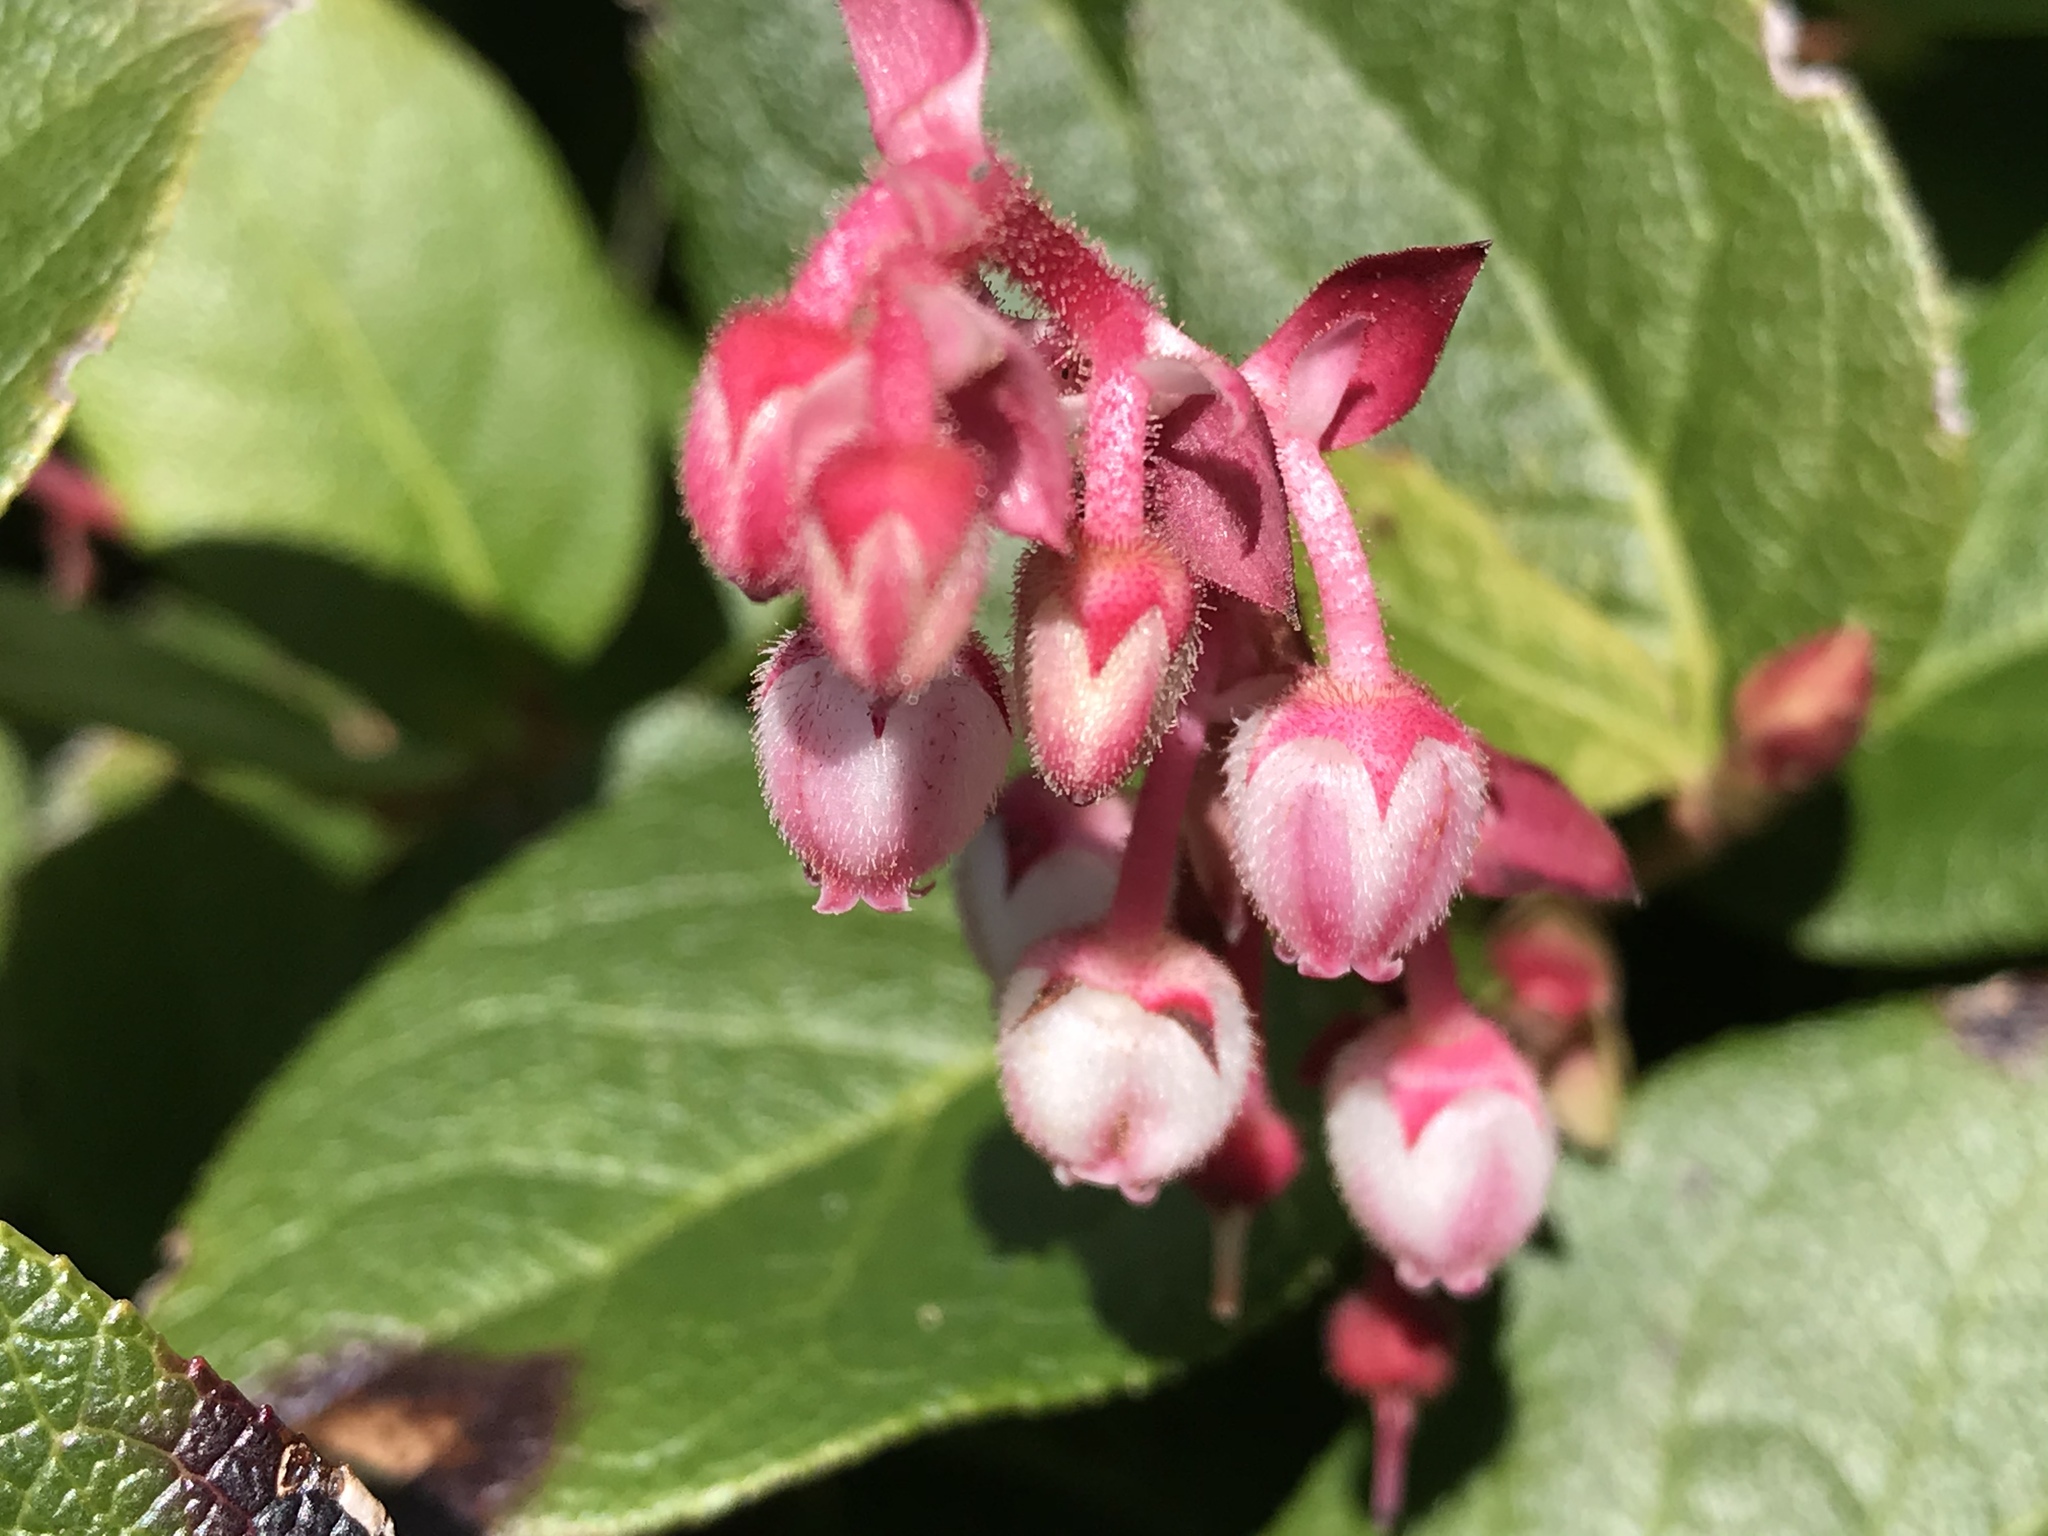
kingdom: Plantae
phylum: Tracheophyta
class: Magnoliopsida
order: Ericales
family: Ericaceae
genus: Gaultheria
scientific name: Gaultheria shallon
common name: Shallon
